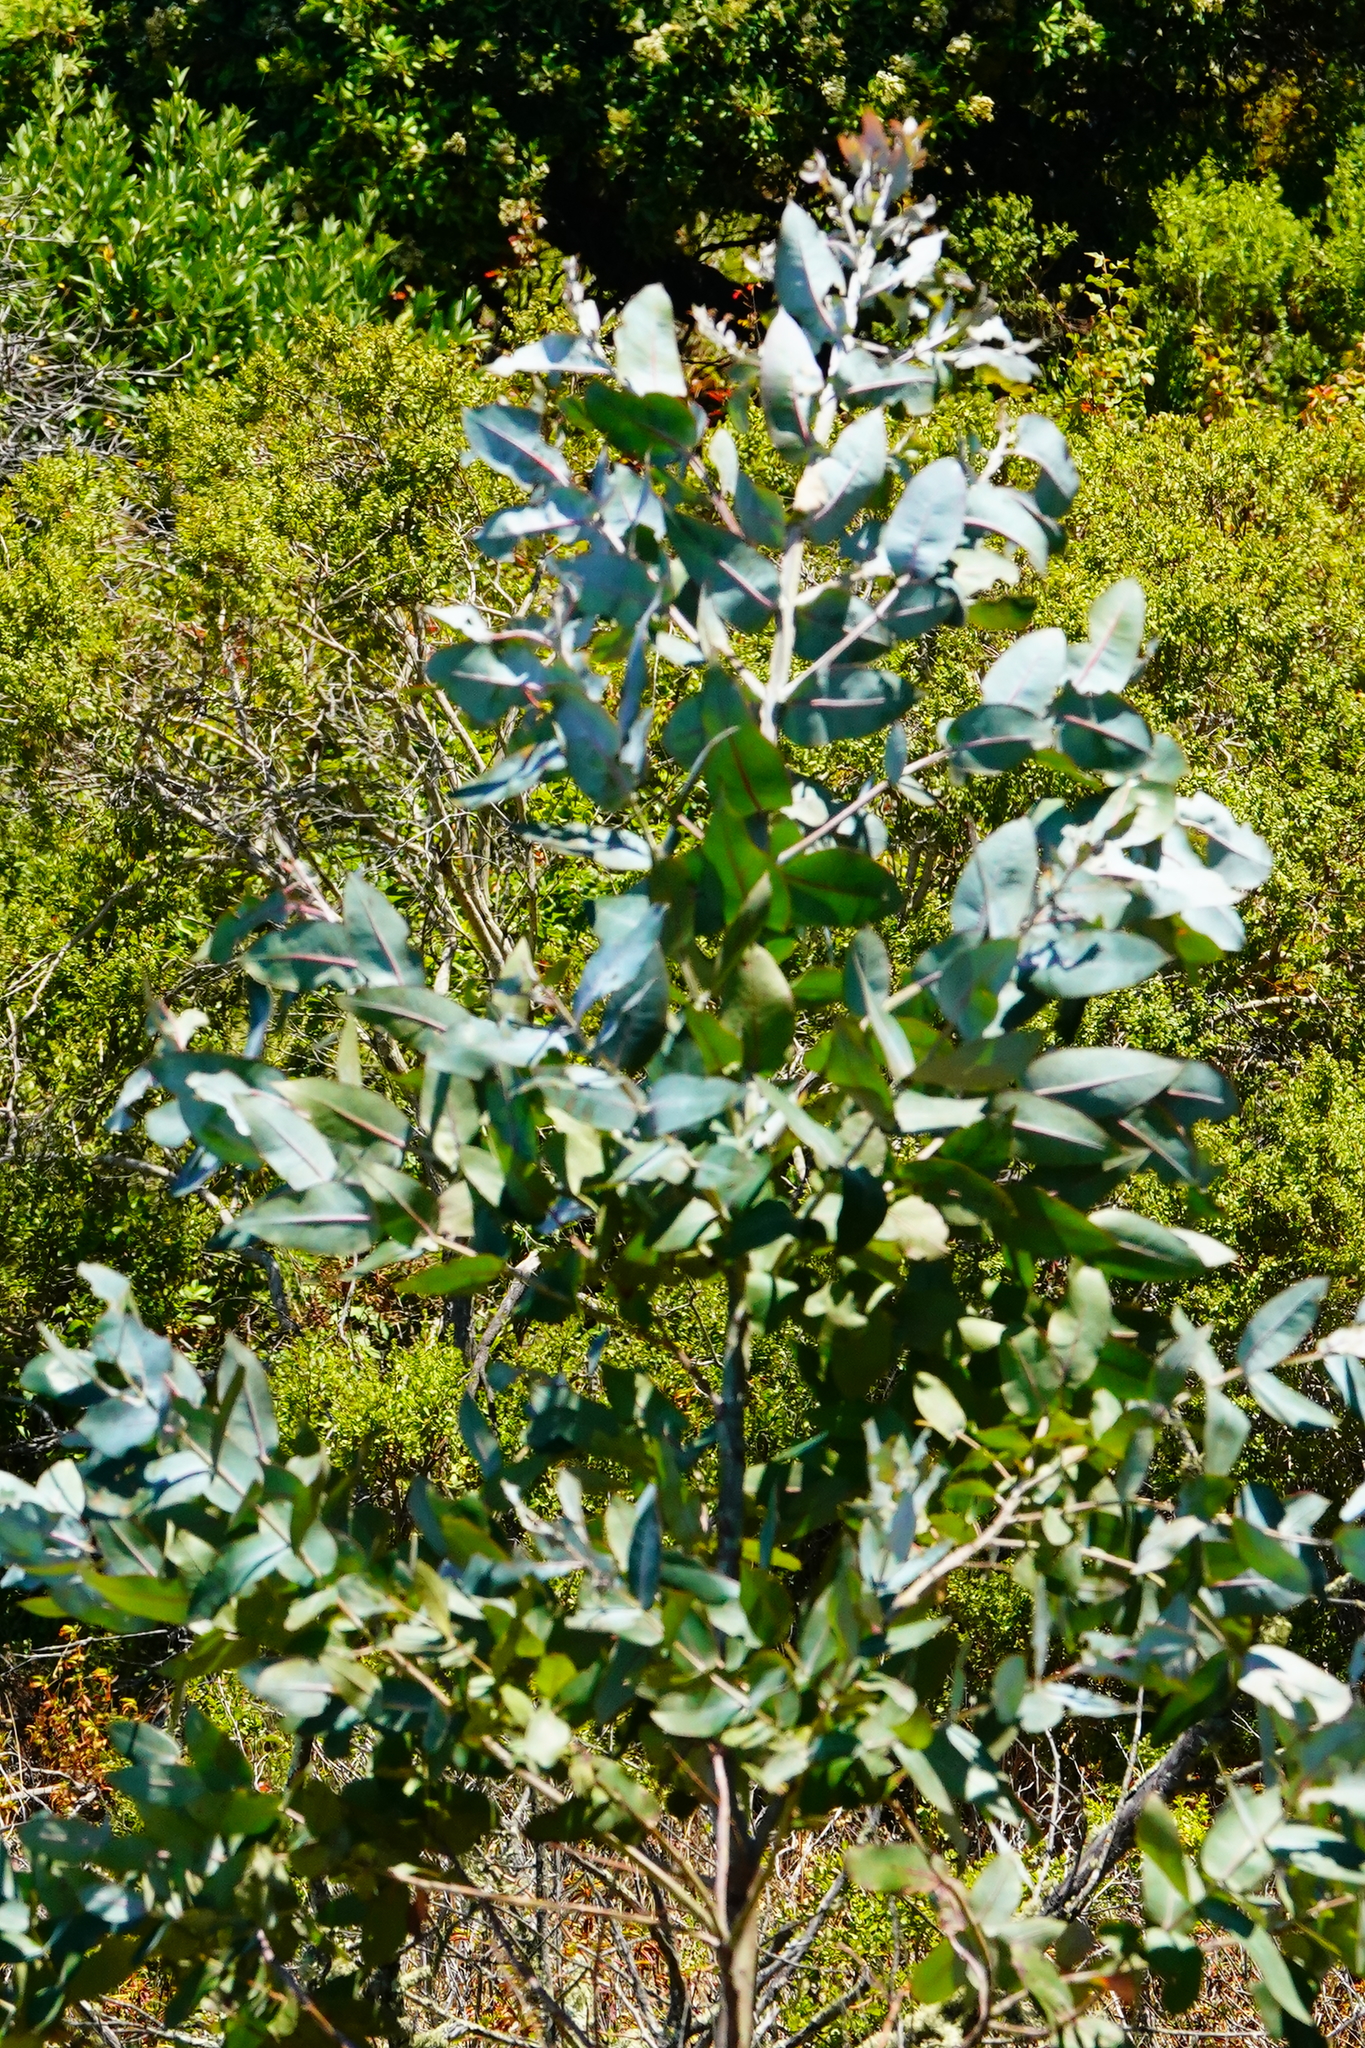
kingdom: Plantae
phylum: Tracheophyta
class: Magnoliopsida
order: Myrtales
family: Myrtaceae
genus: Eucalyptus
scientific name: Eucalyptus globulus
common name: Southern blue-gum
